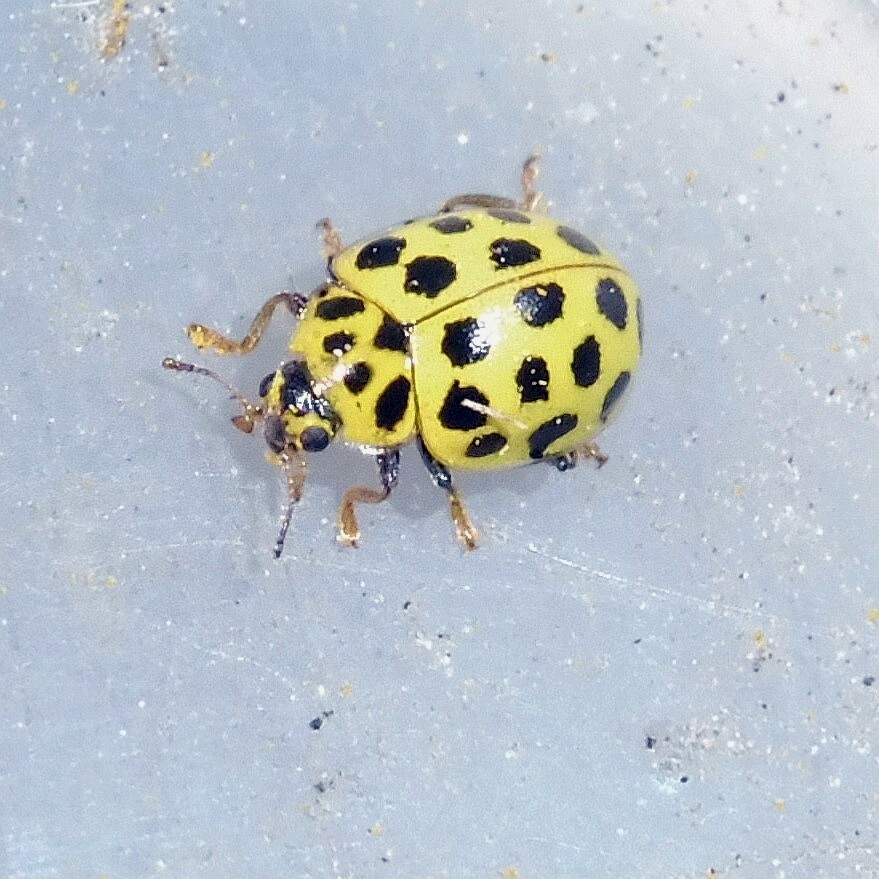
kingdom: Animalia
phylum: Arthropoda
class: Insecta
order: Coleoptera
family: Coccinellidae
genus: Psyllobora
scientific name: Psyllobora vigintiduopunctata
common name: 22-spot ladybird
